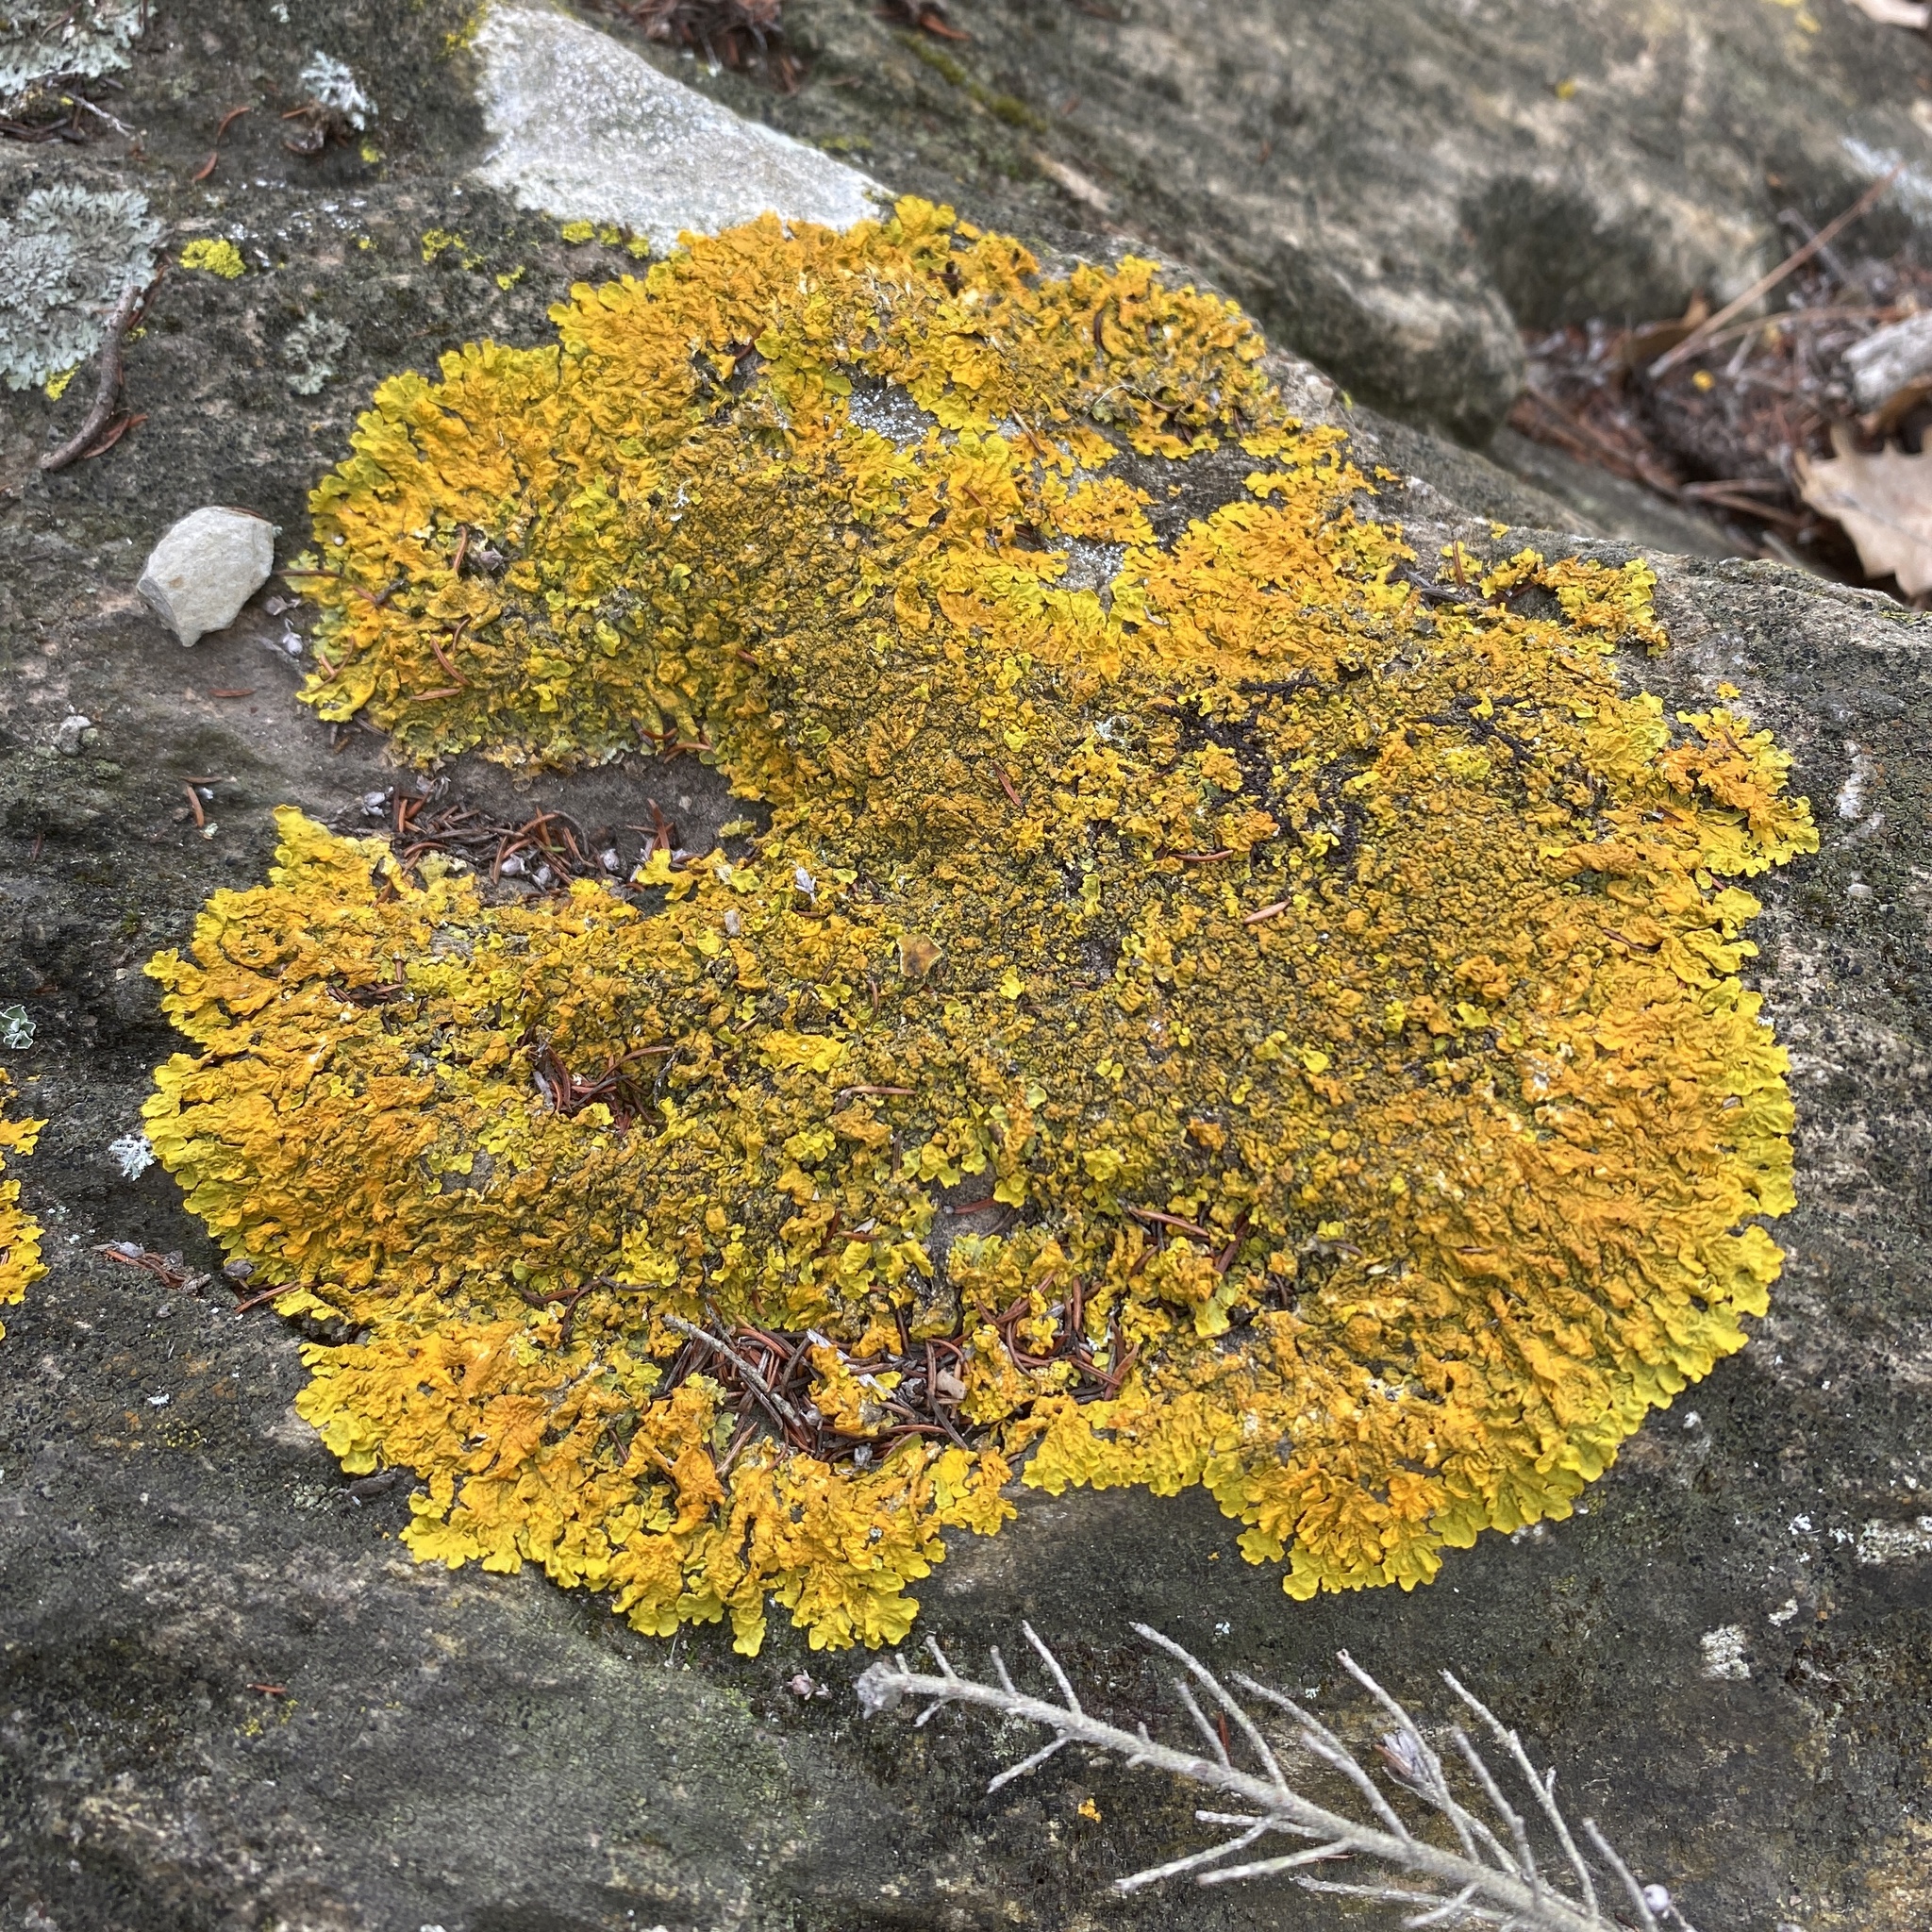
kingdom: Fungi
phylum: Ascomycota
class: Lecanoromycetes
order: Teloschistales
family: Teloschistaceae
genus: Xanthoria
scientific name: Xanthoria calcicola
